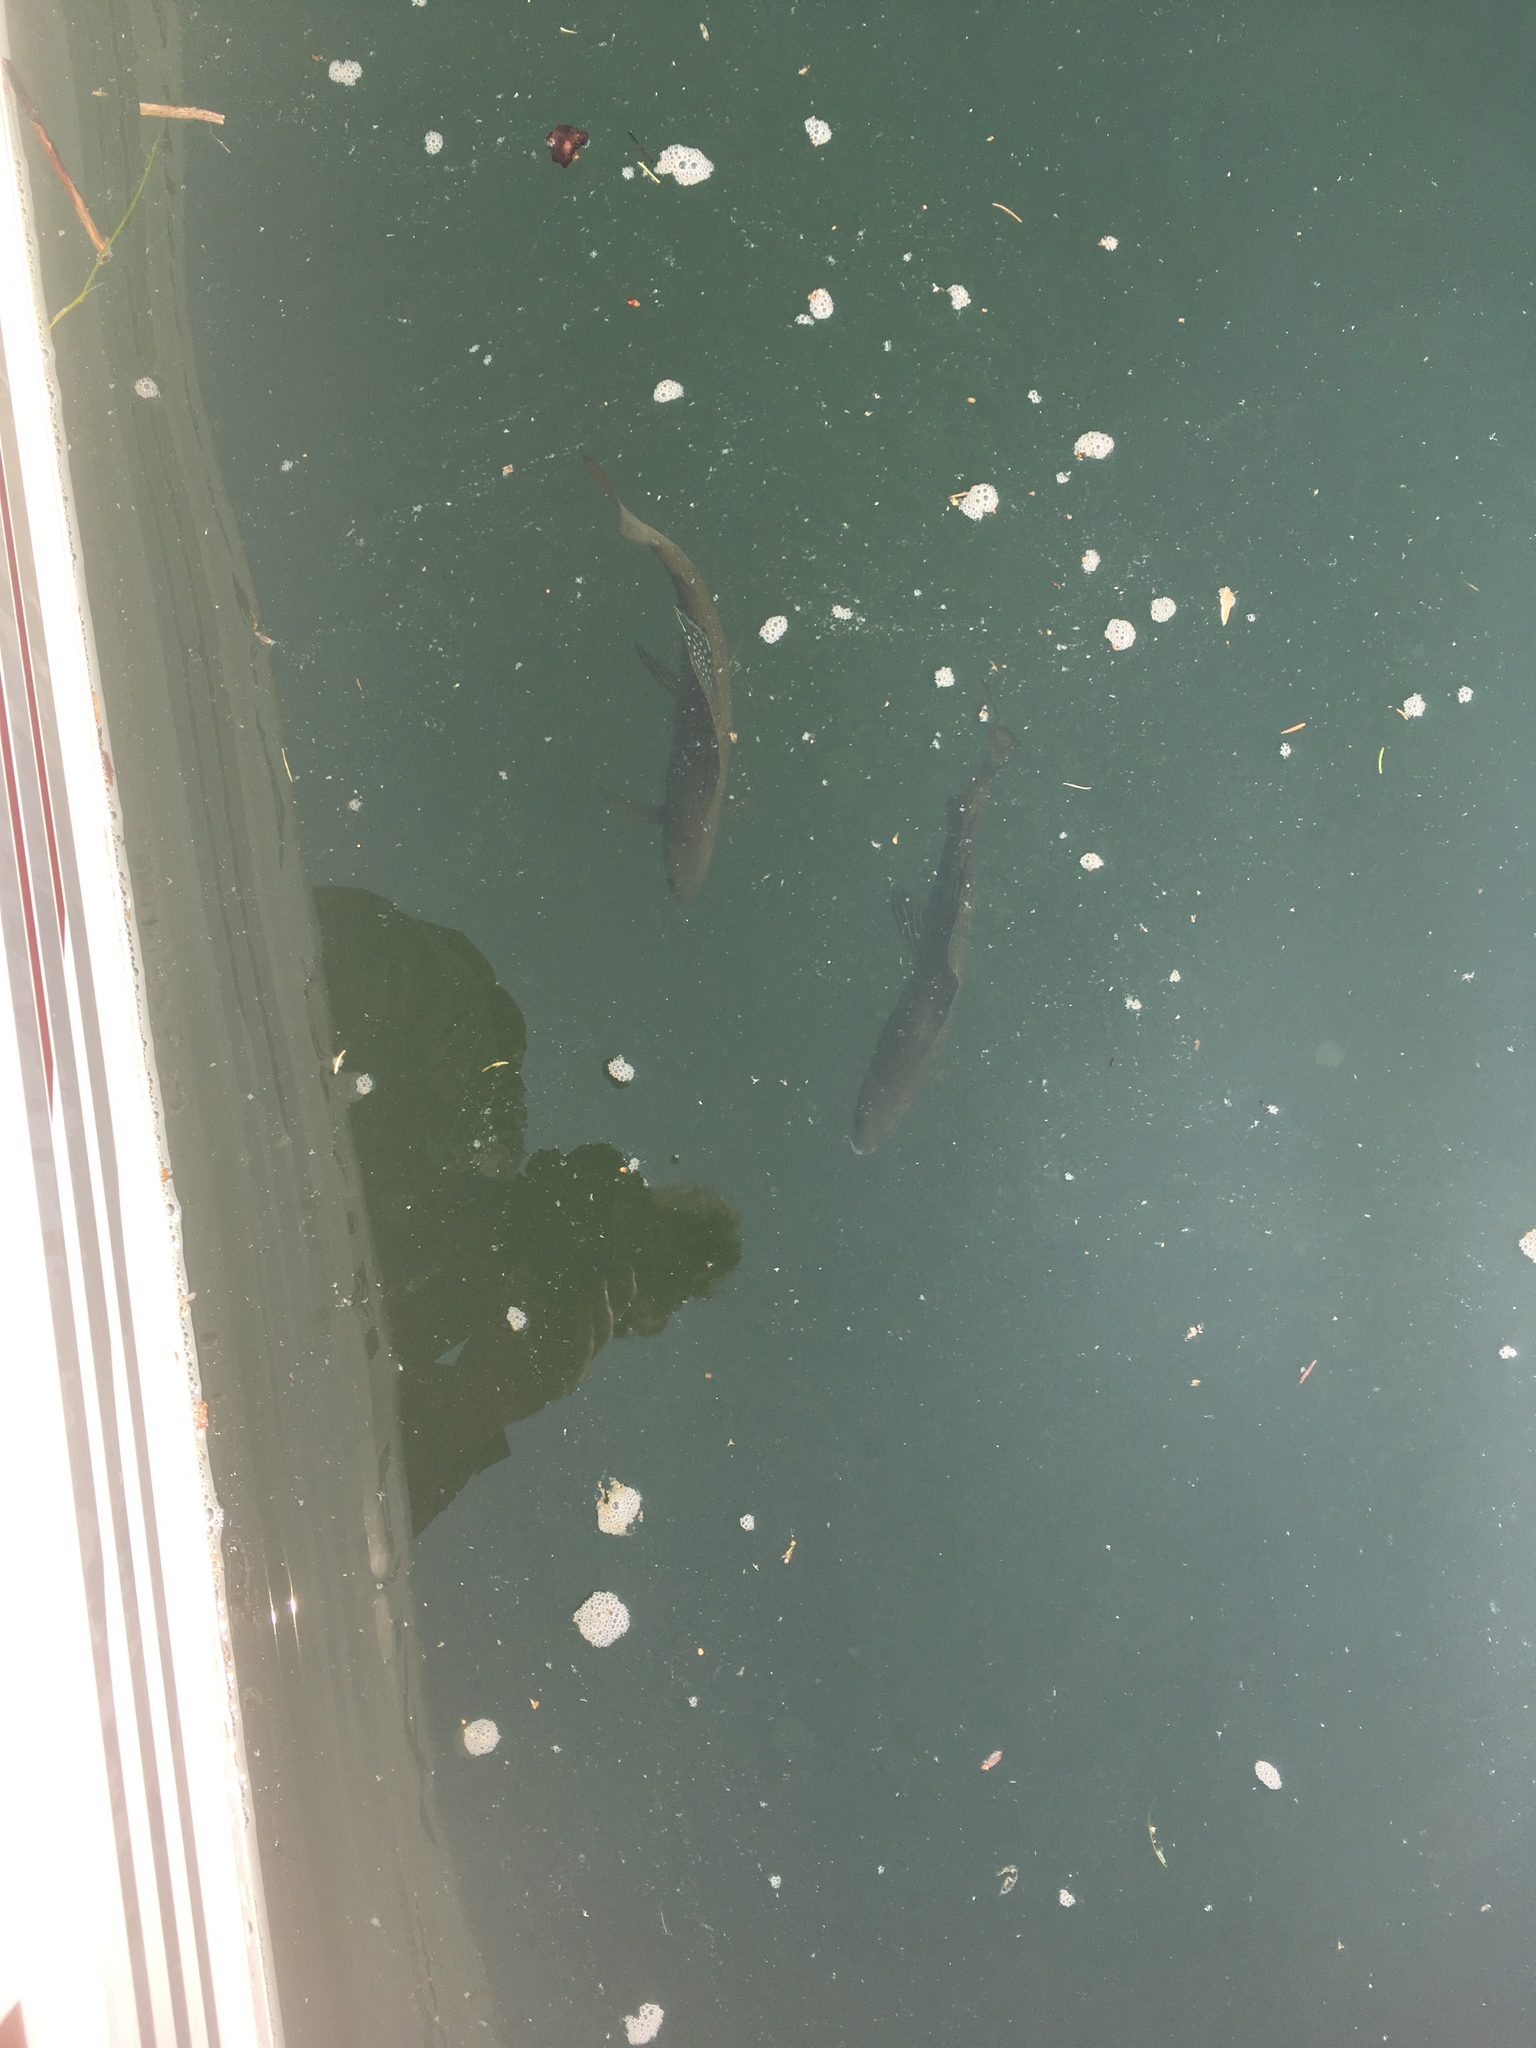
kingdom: Animalia
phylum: Chordata
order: Salmoniformes
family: Salmonidae
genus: Thymallus
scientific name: Thymallus arcticus
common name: Arctic grayling
